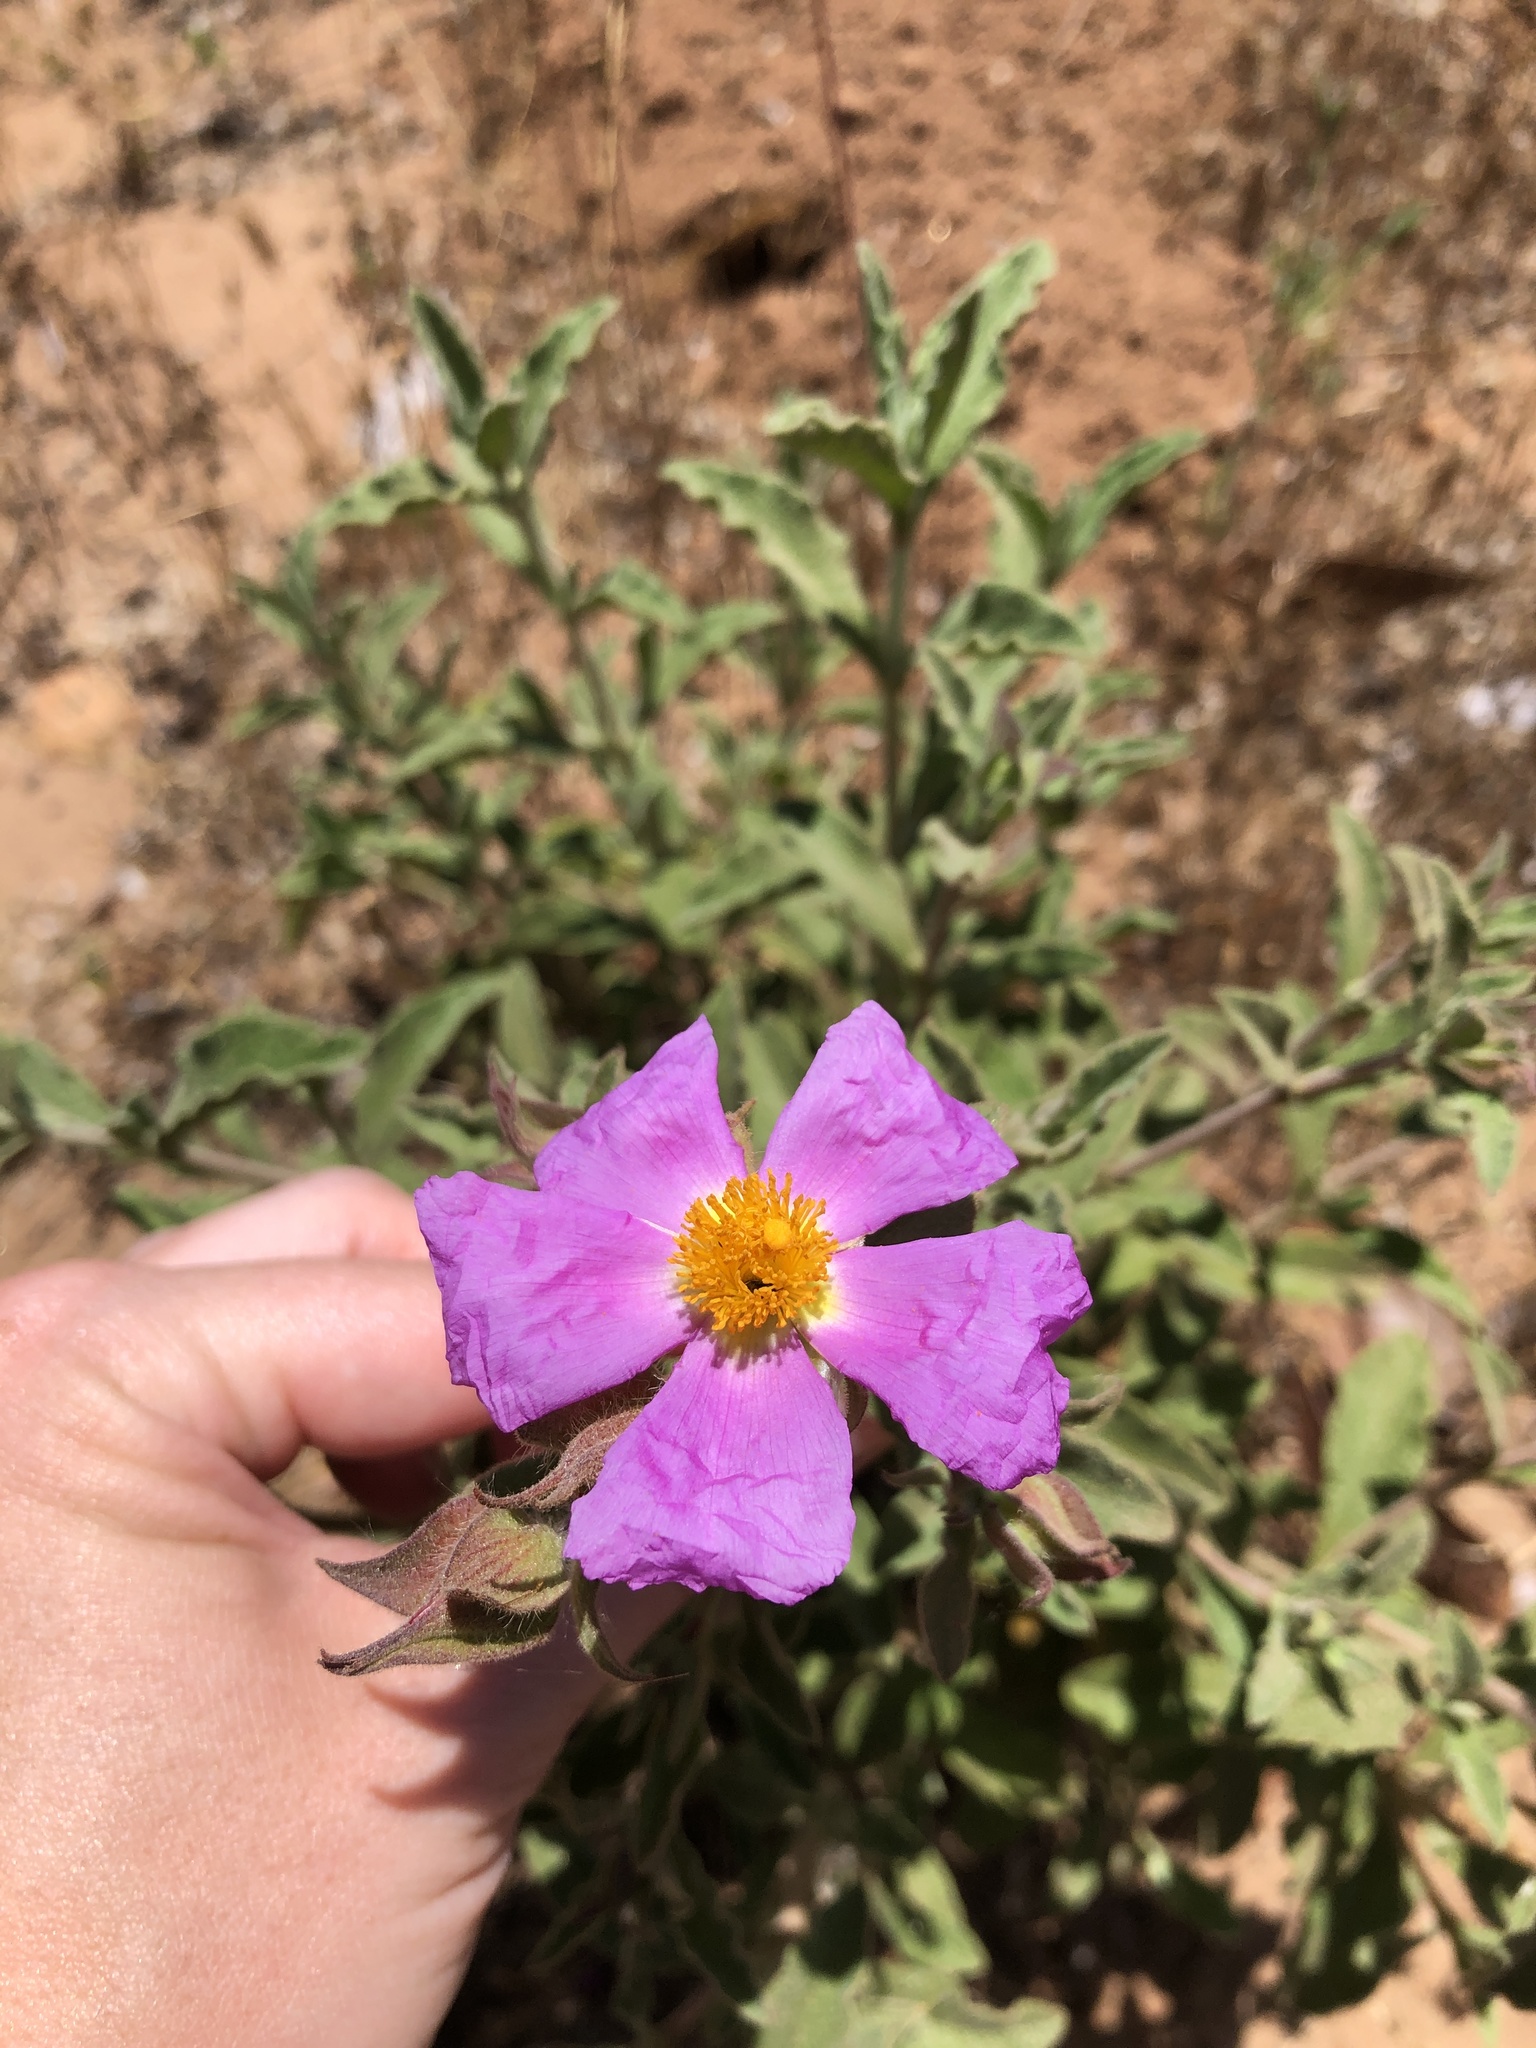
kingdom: Plantae
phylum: Tracheophyta
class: Magnoliopsida
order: Malvales
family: Cistaceae
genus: Cistus
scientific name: Cistus creticus
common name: Cretan rockrose
